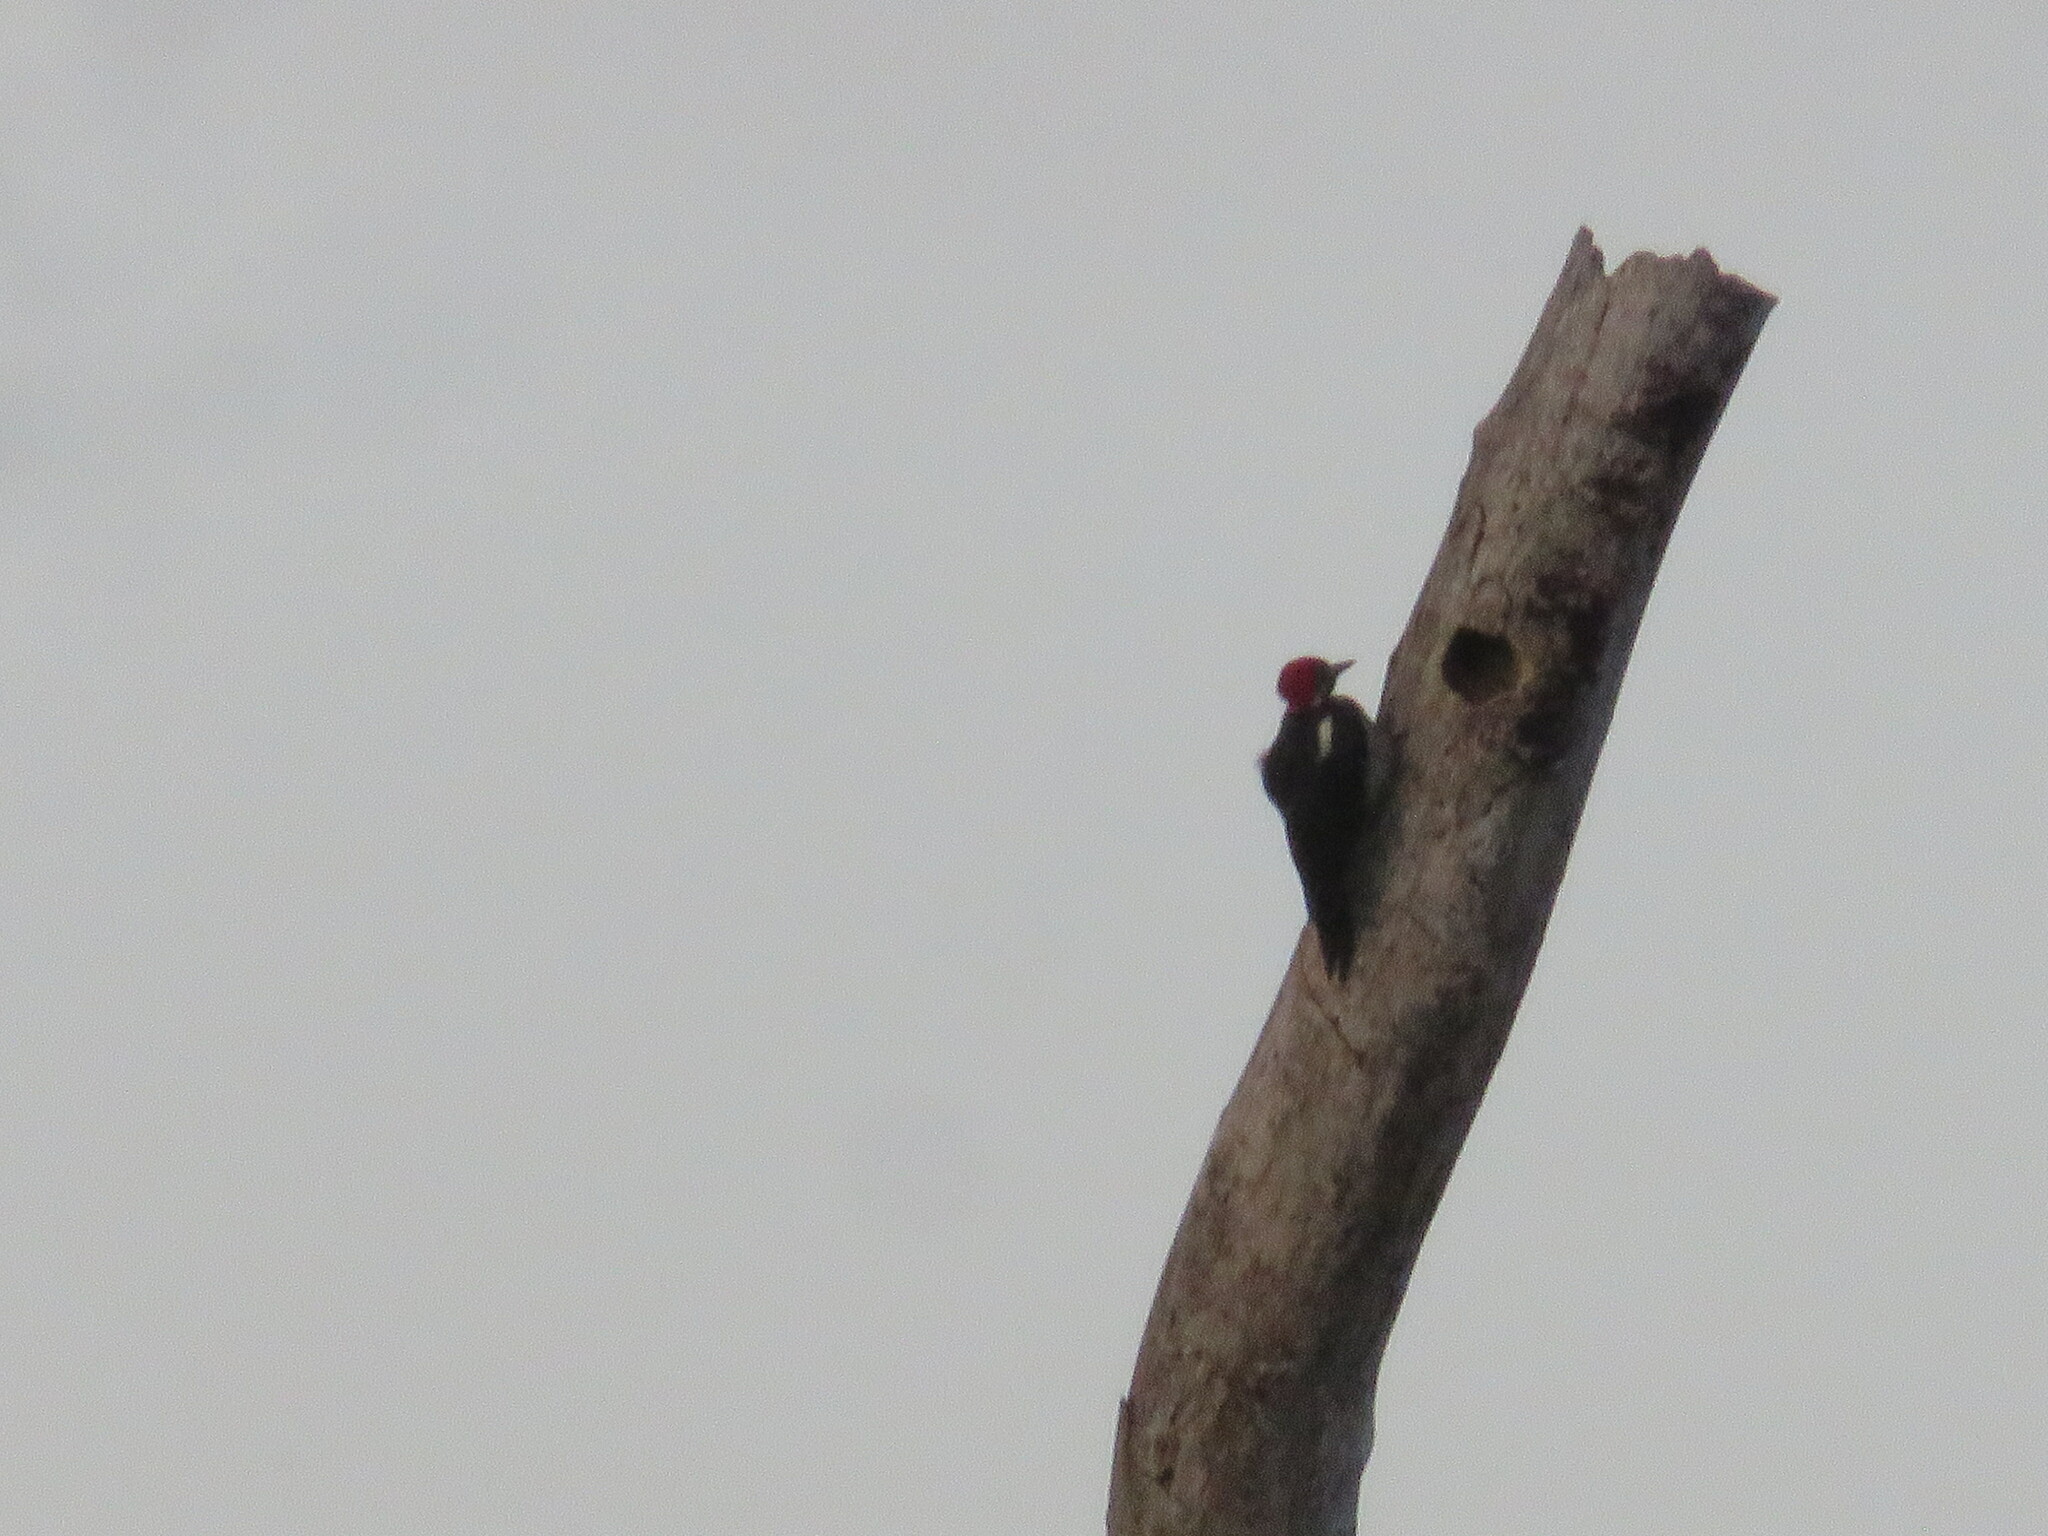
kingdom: Animalia
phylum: Chordata
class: Aves
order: Piciformes
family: Picidae
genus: Dryocopus
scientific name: Dryocopus lineatus
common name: Lineated woodpecker
